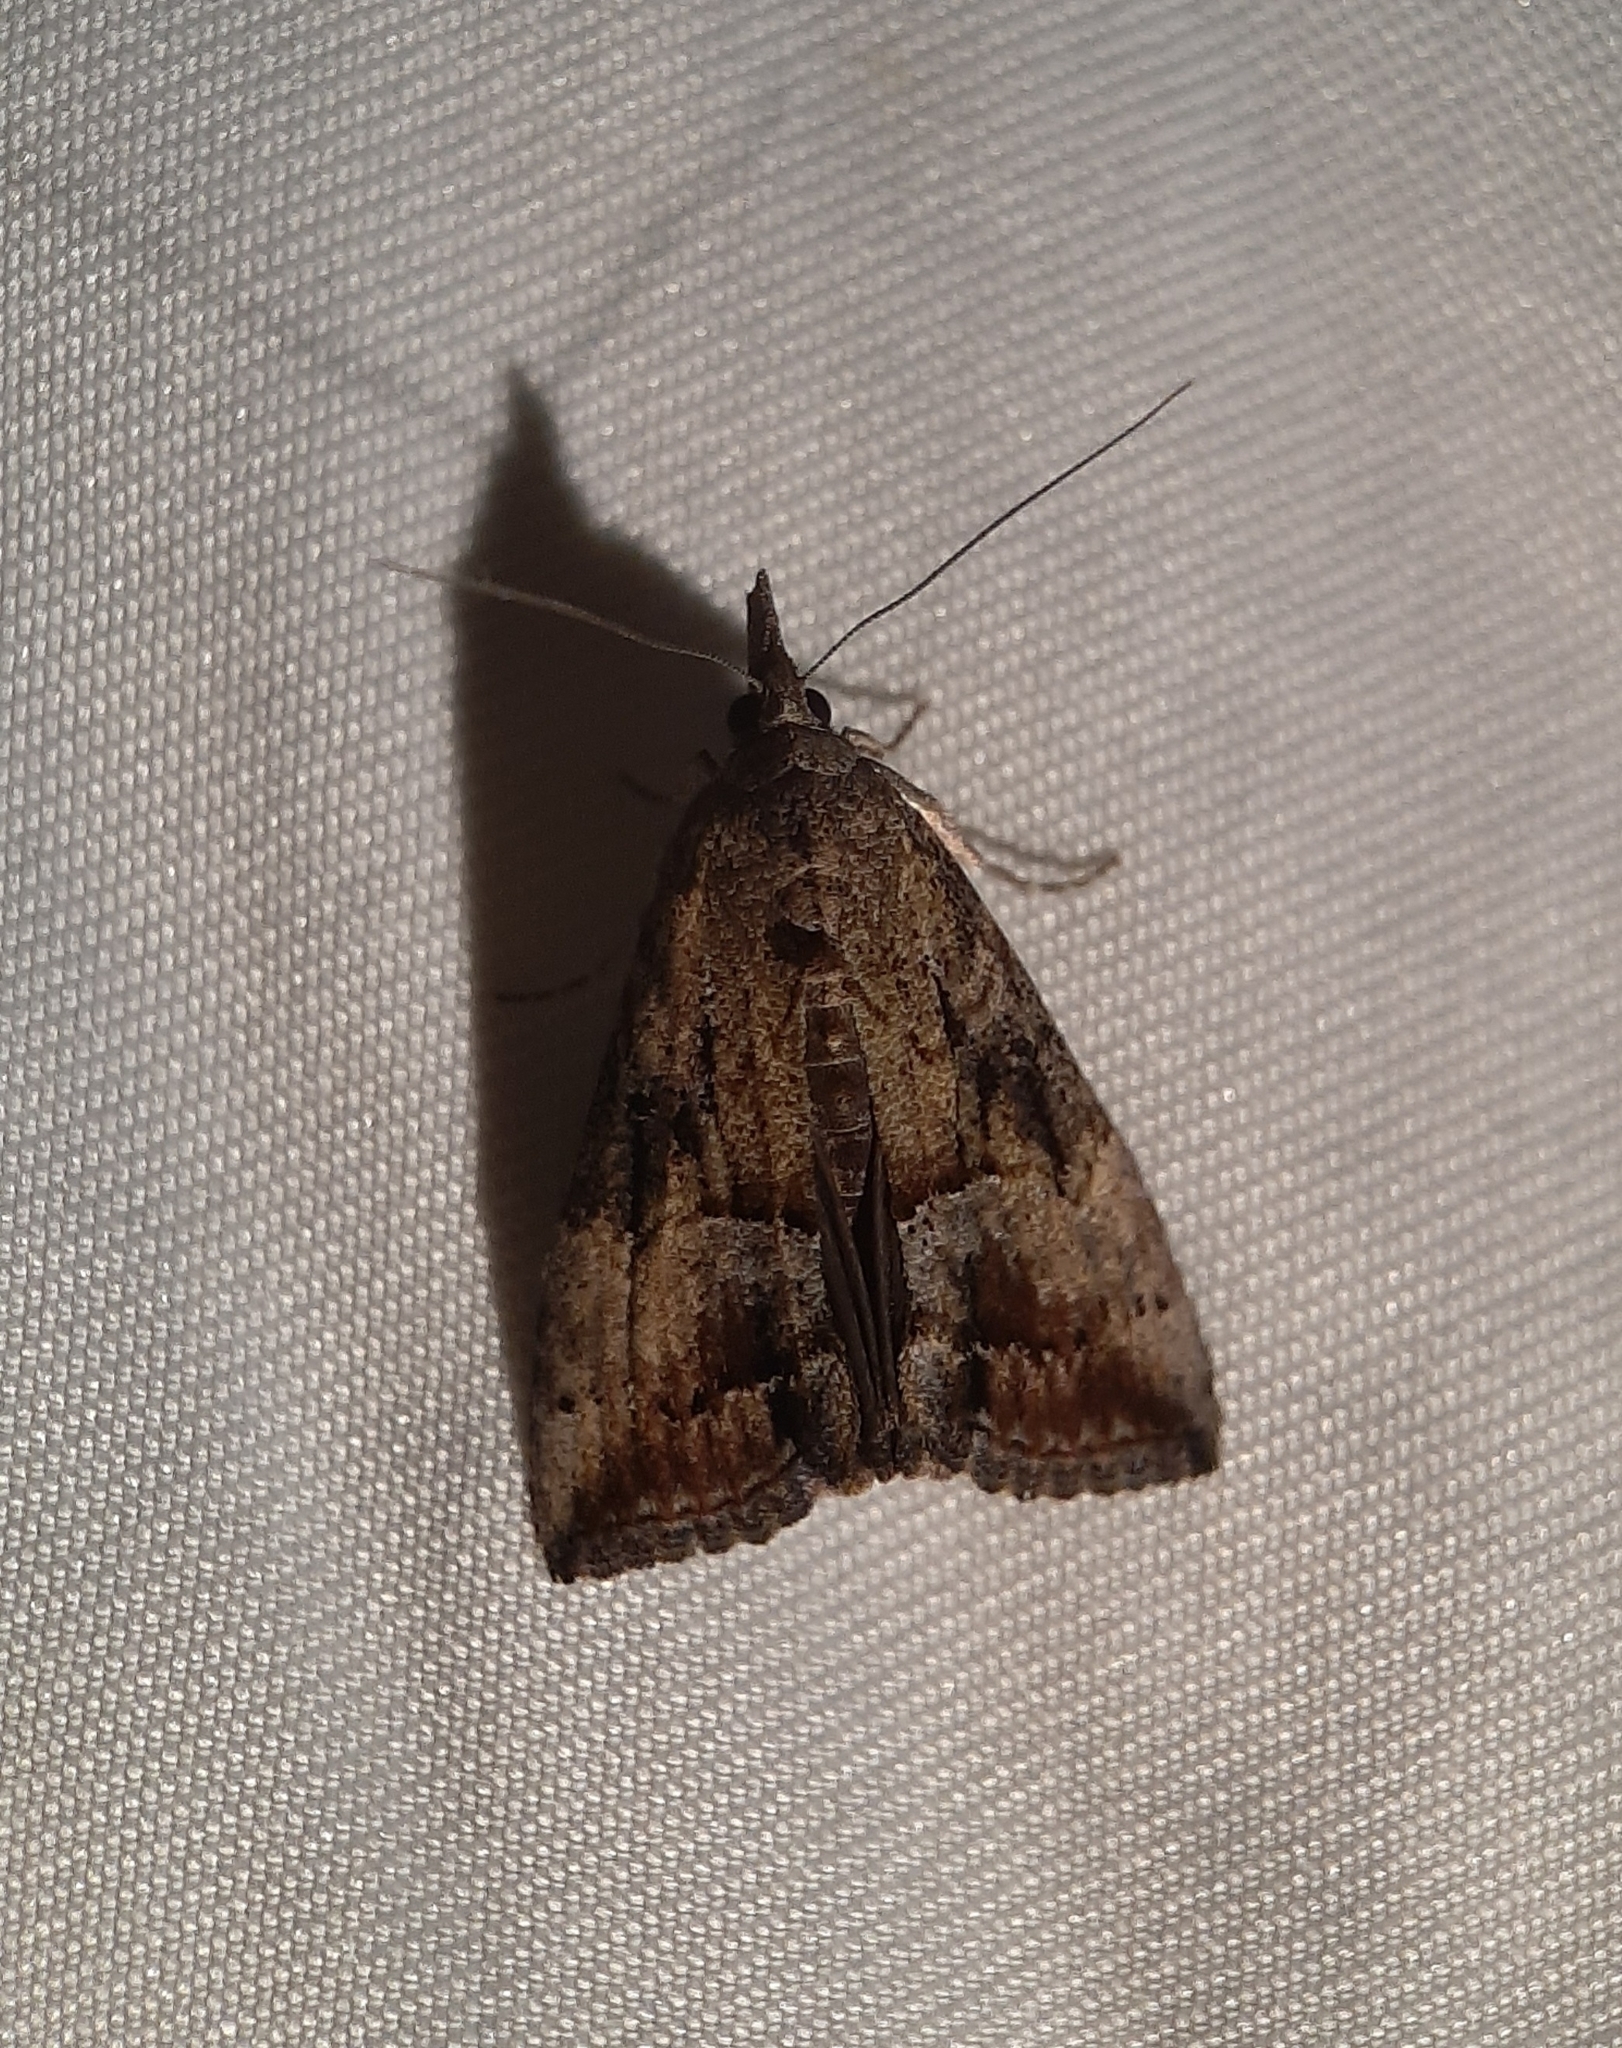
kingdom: Animalia
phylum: Arthropoda
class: Insecta
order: Lepidoptera
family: Erebidae
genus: Hypena
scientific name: Hypena scabra
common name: Green cloverworm
